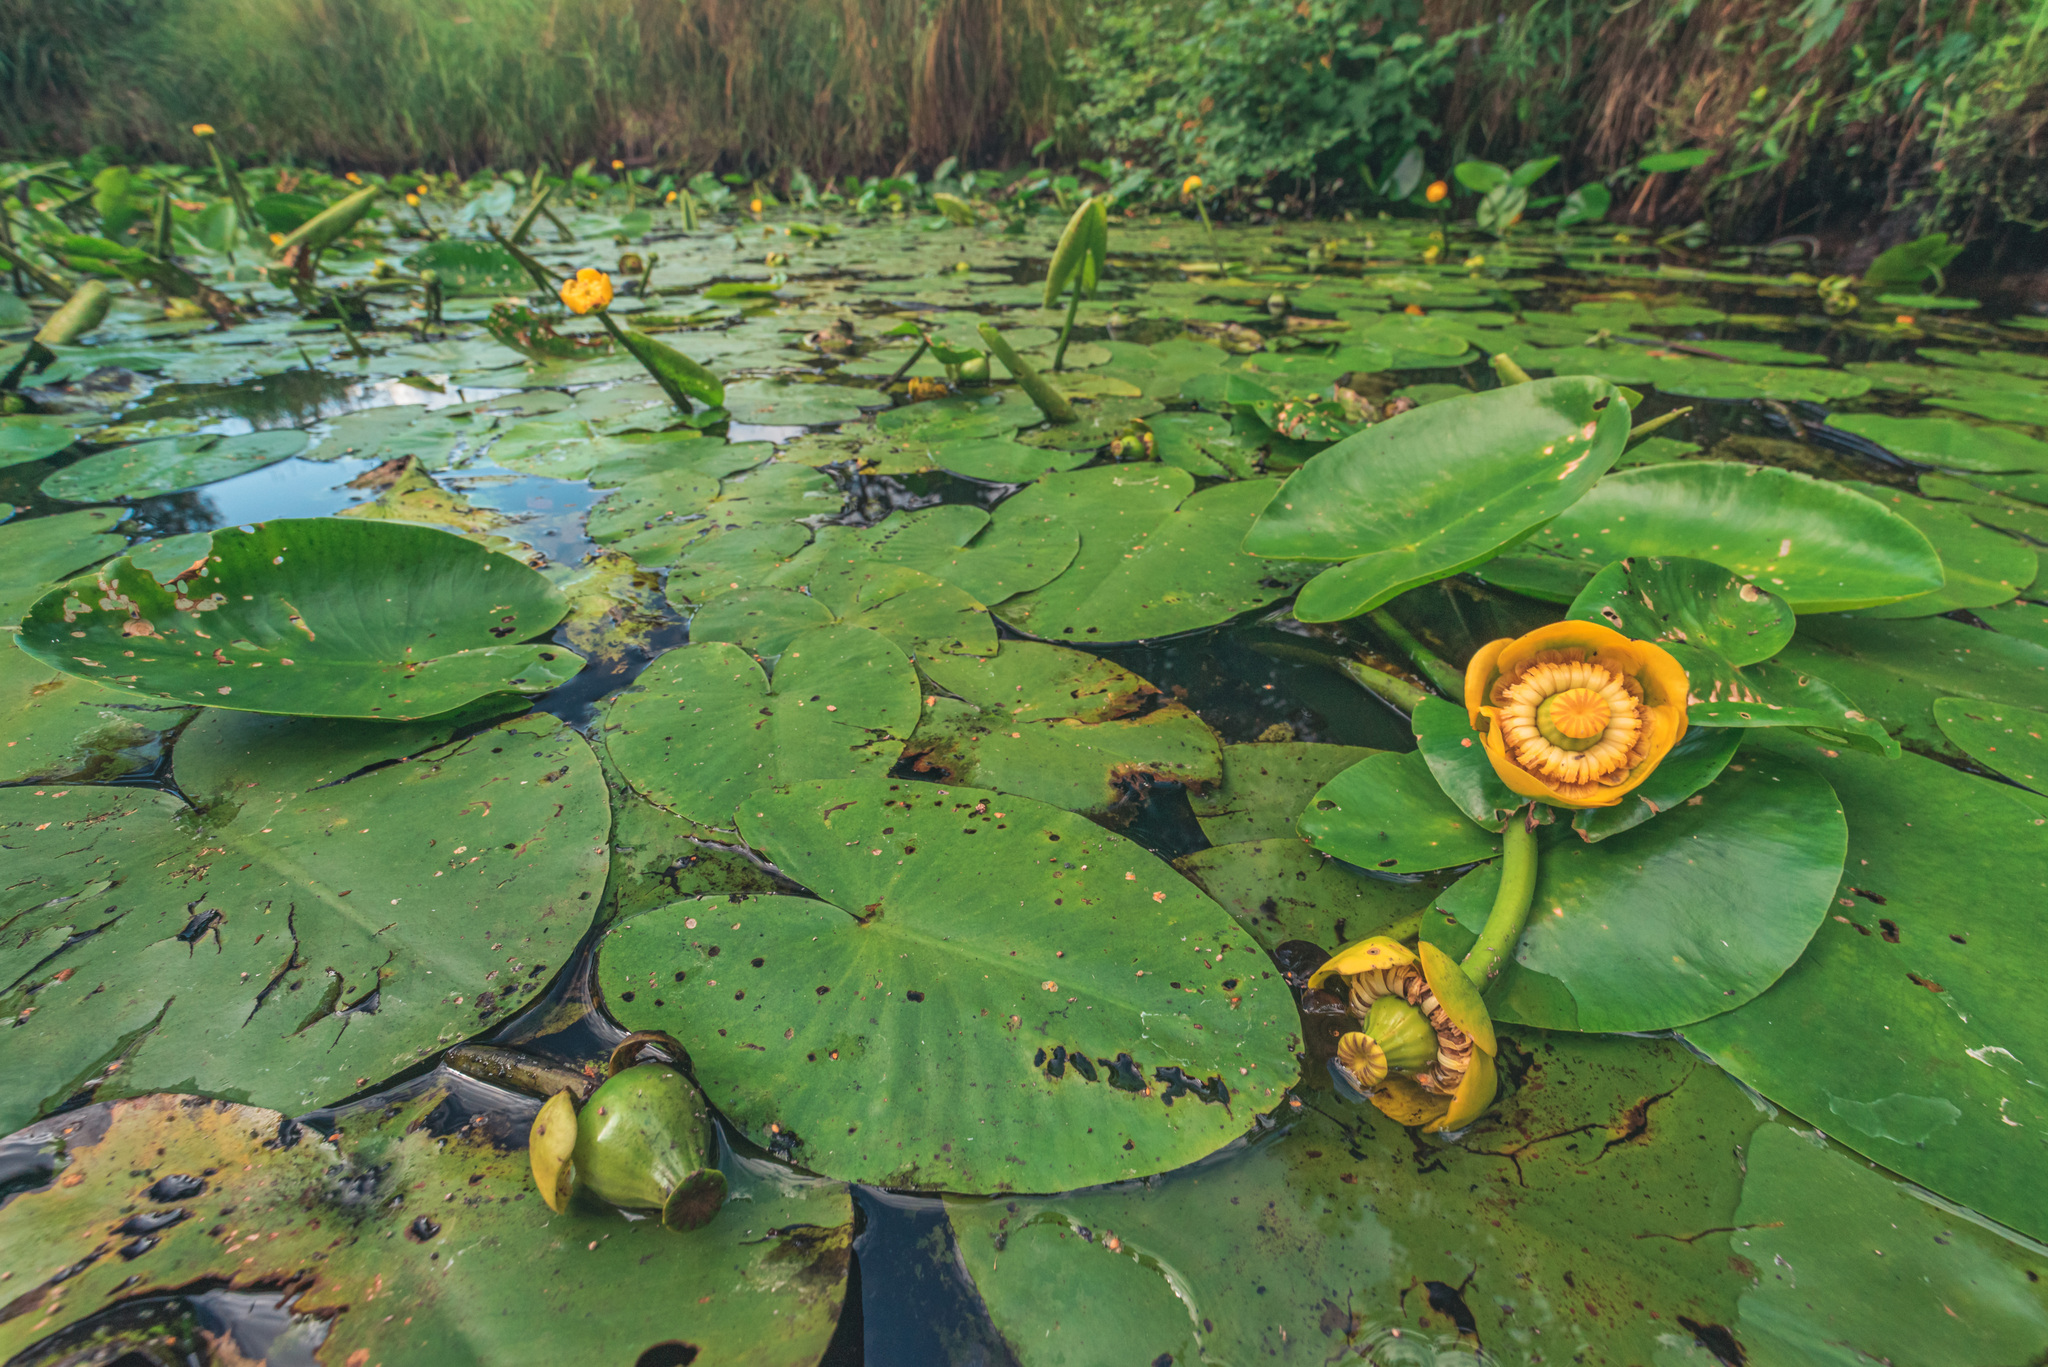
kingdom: Plantae
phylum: Tracheophyta
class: Magnoliopsida
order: Nymphaeales
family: Nymphaeaceae
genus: Nuphar
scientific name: Nuphar lutea
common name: Yellow water-lily
